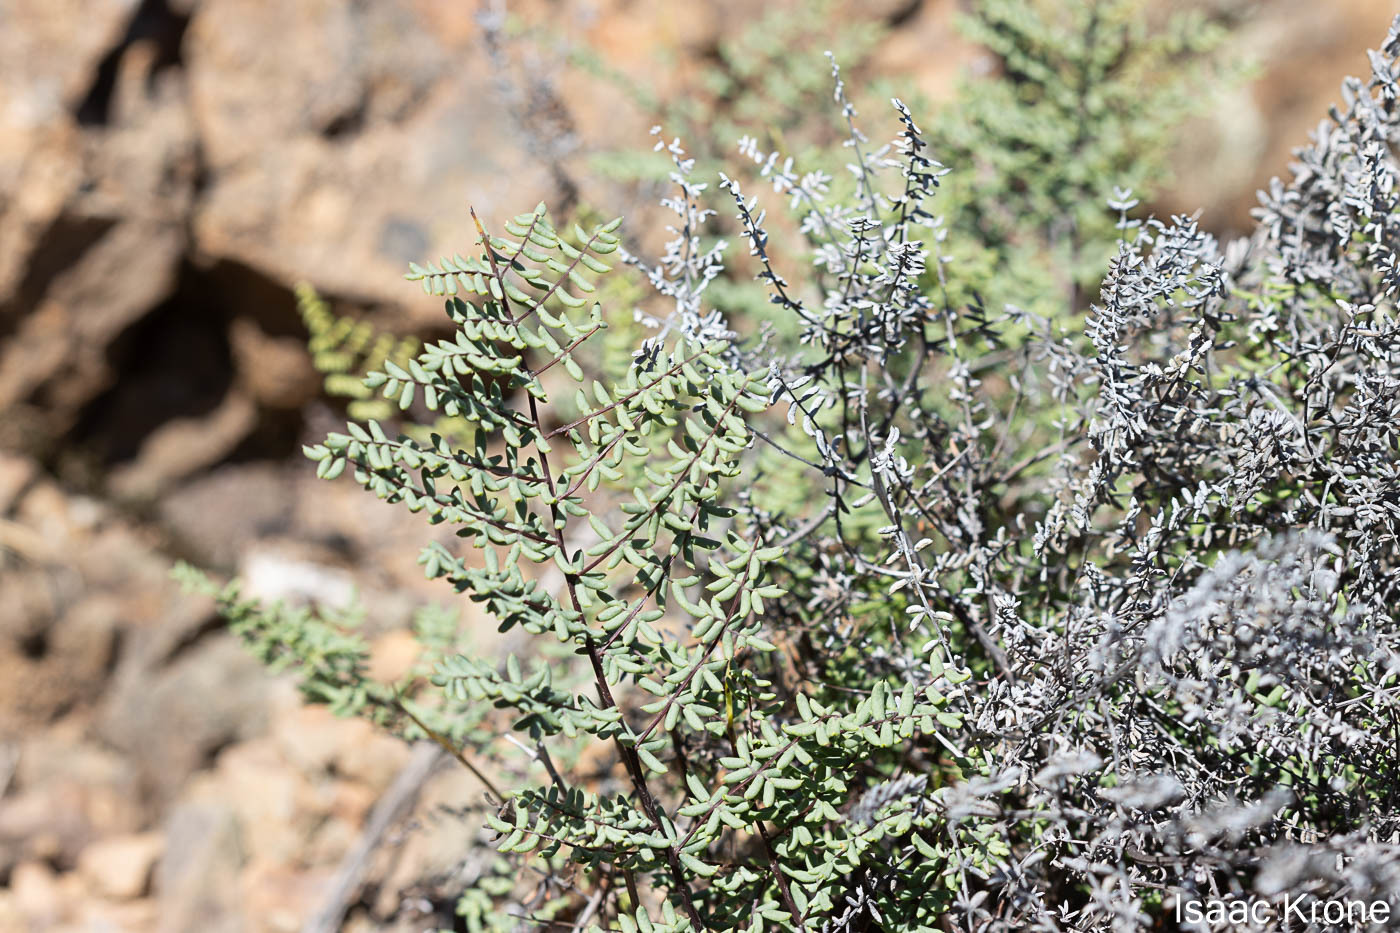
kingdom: Plantae
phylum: Tracheophyta
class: Polypodiopsida
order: Polypodiales
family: Pteridaceae
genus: Pellaea
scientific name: Pellaea mucronata
